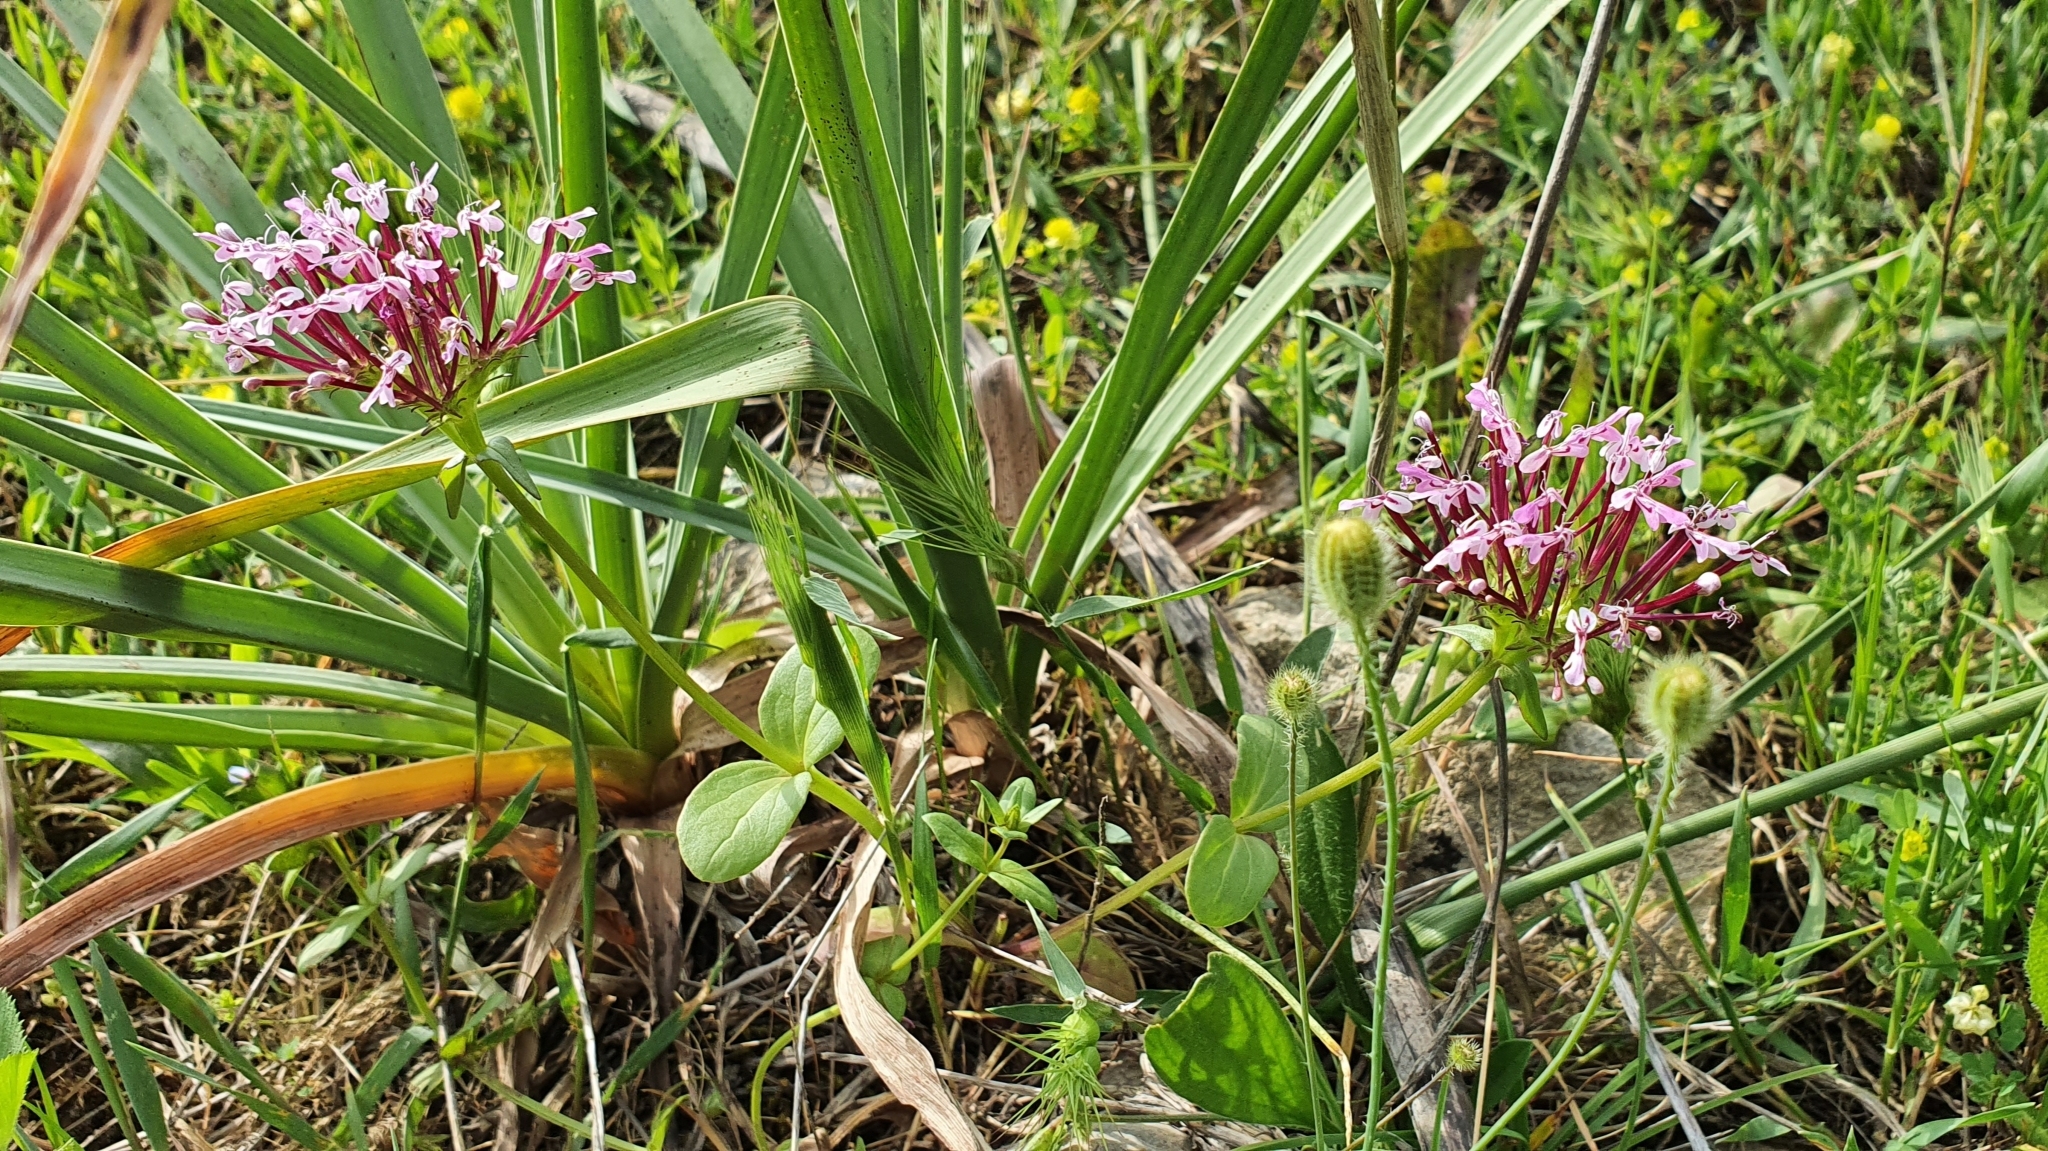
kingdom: Plantae
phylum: Tracheophyta
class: Magnoliopsida
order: Dipsacales
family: Caprifoliaceae
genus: Fedia
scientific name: Fedia graciliflora
